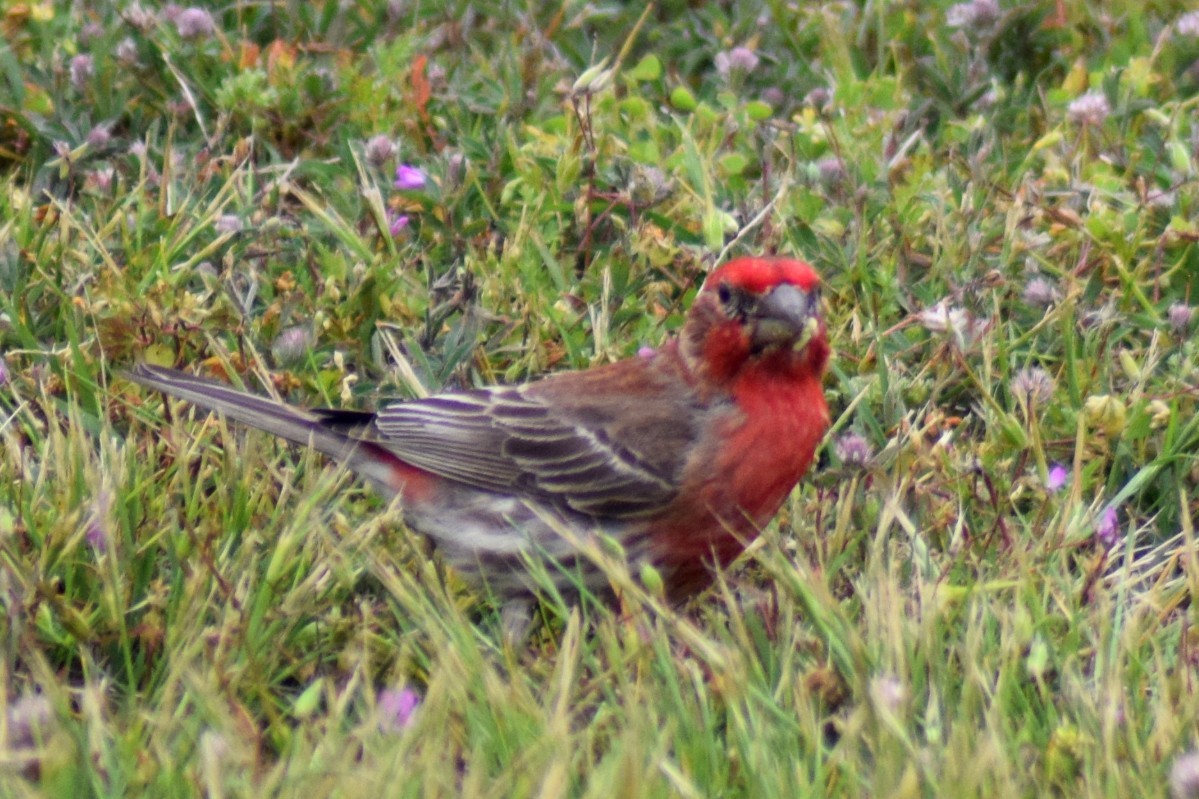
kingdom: Animalia
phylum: Chordata
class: Aves
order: Passeriformes
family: Fringillidae
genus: Haemorhous
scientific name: Haemorhous mexicanus
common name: House finch
